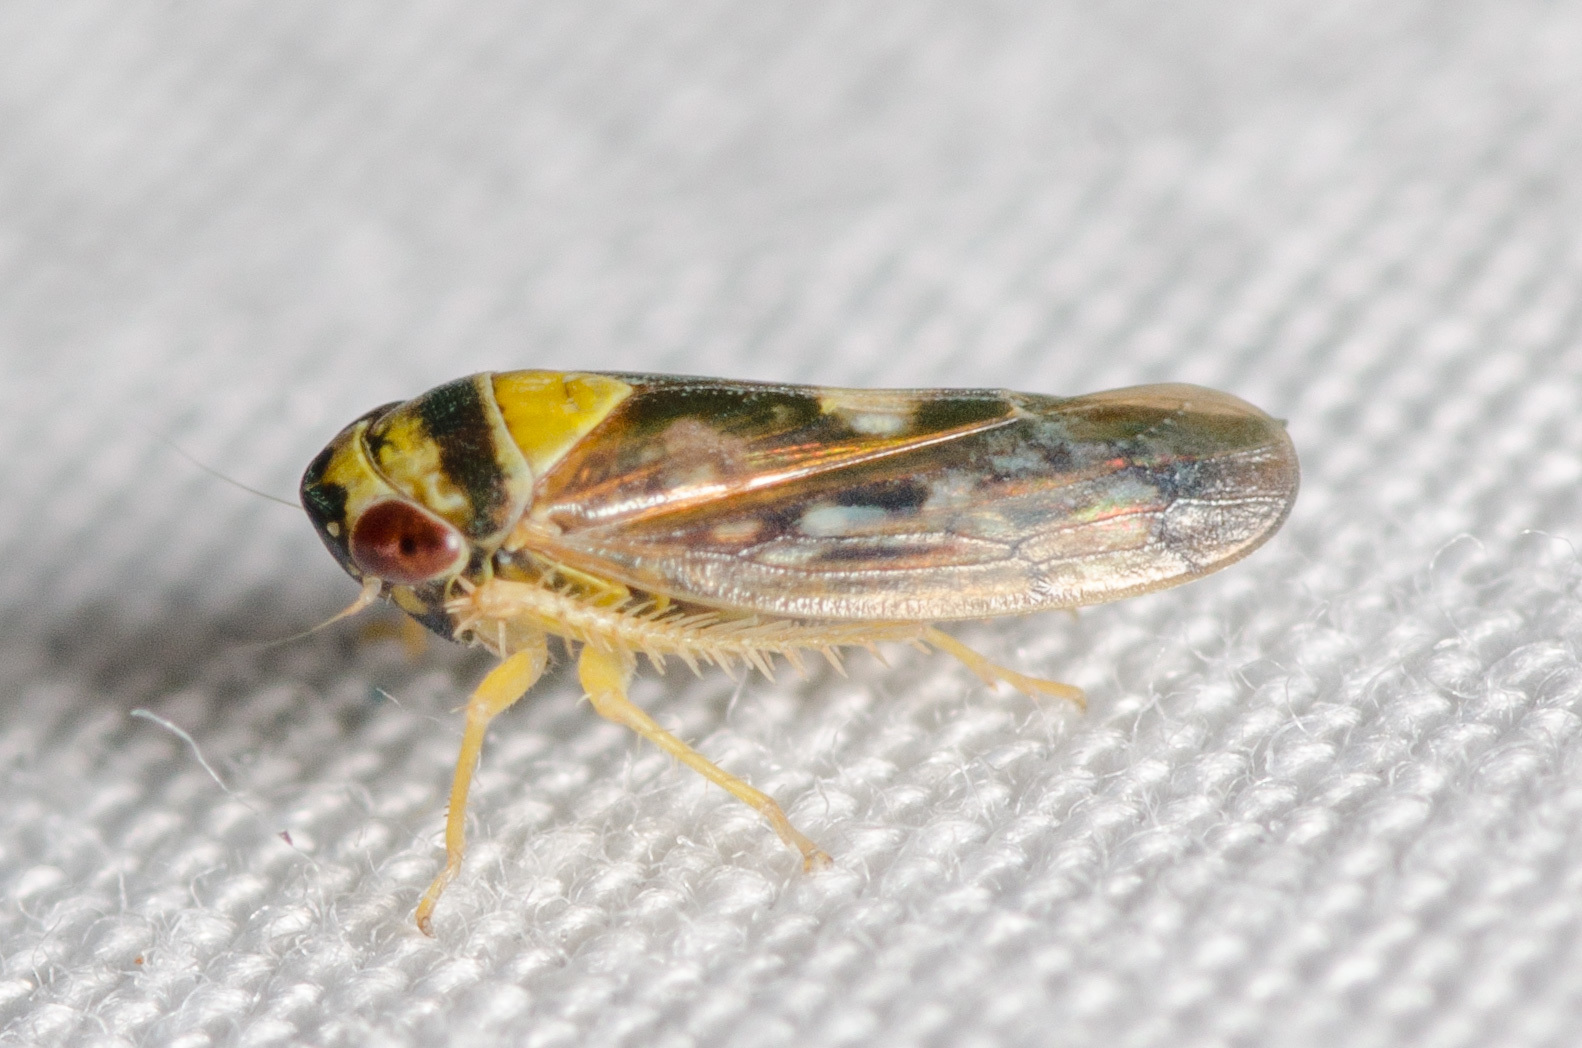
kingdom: Animalia
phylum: Arthropoda
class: Insecta
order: Hemiptera
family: Cicadellidae
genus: Eutettix
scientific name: Eutettix slossoni
